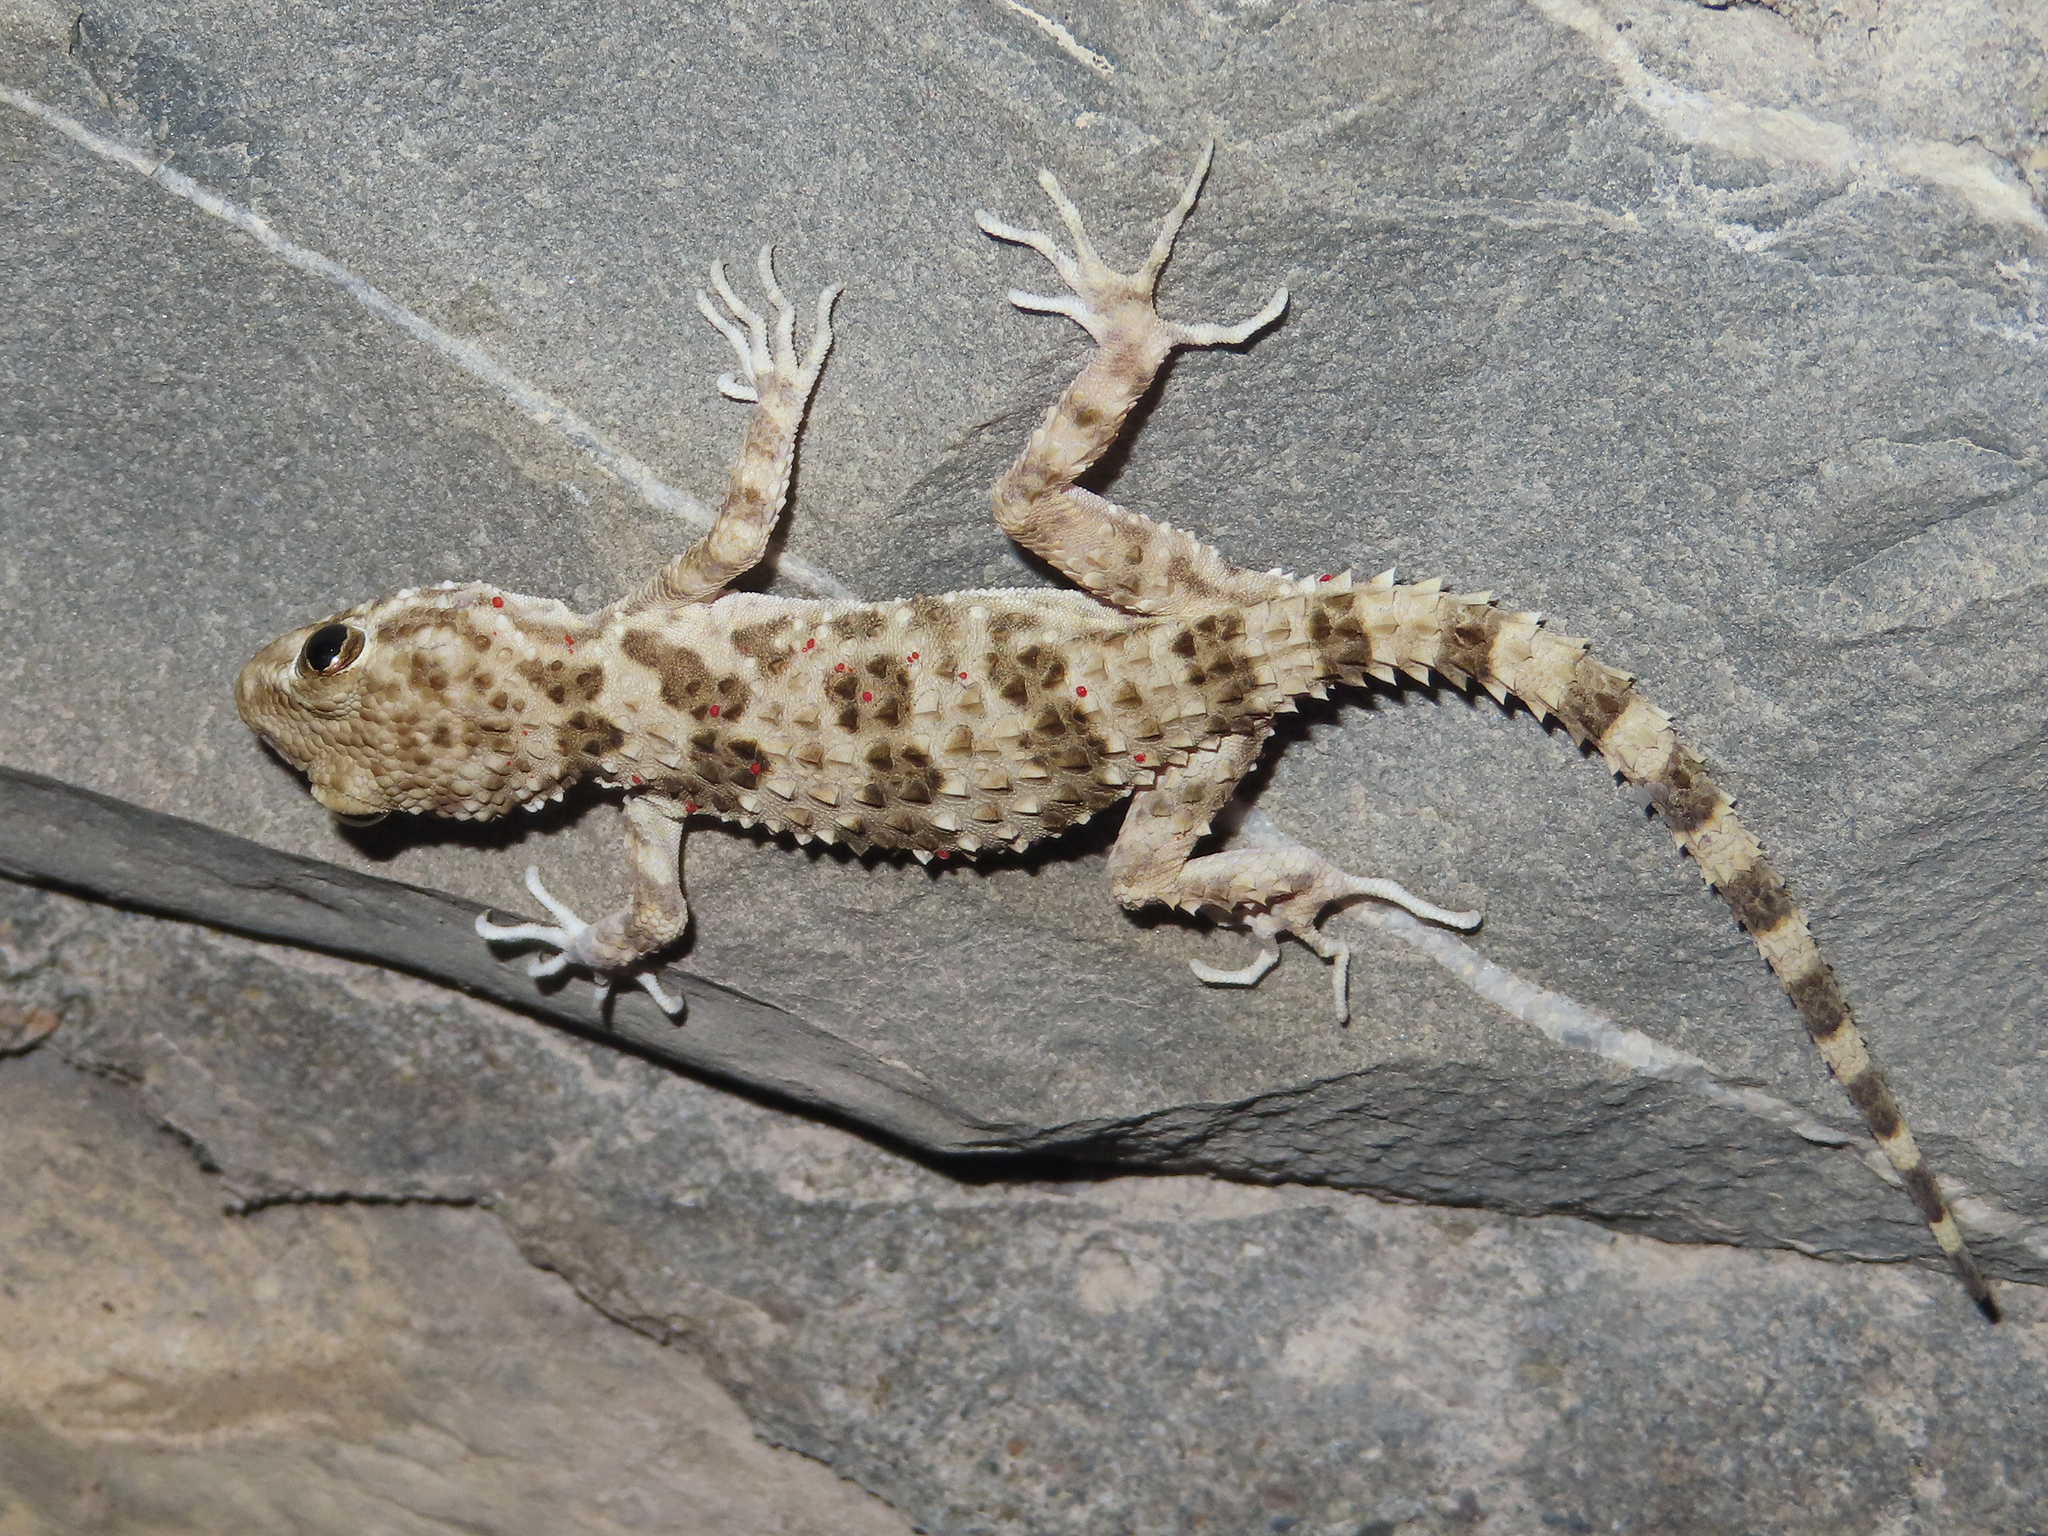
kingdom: Animalia
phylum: Chordata
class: Squamata
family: Gekkonidae
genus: Tenuidactylus
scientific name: Tenuidactylus caspius
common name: Caspian bent-toed gecko
